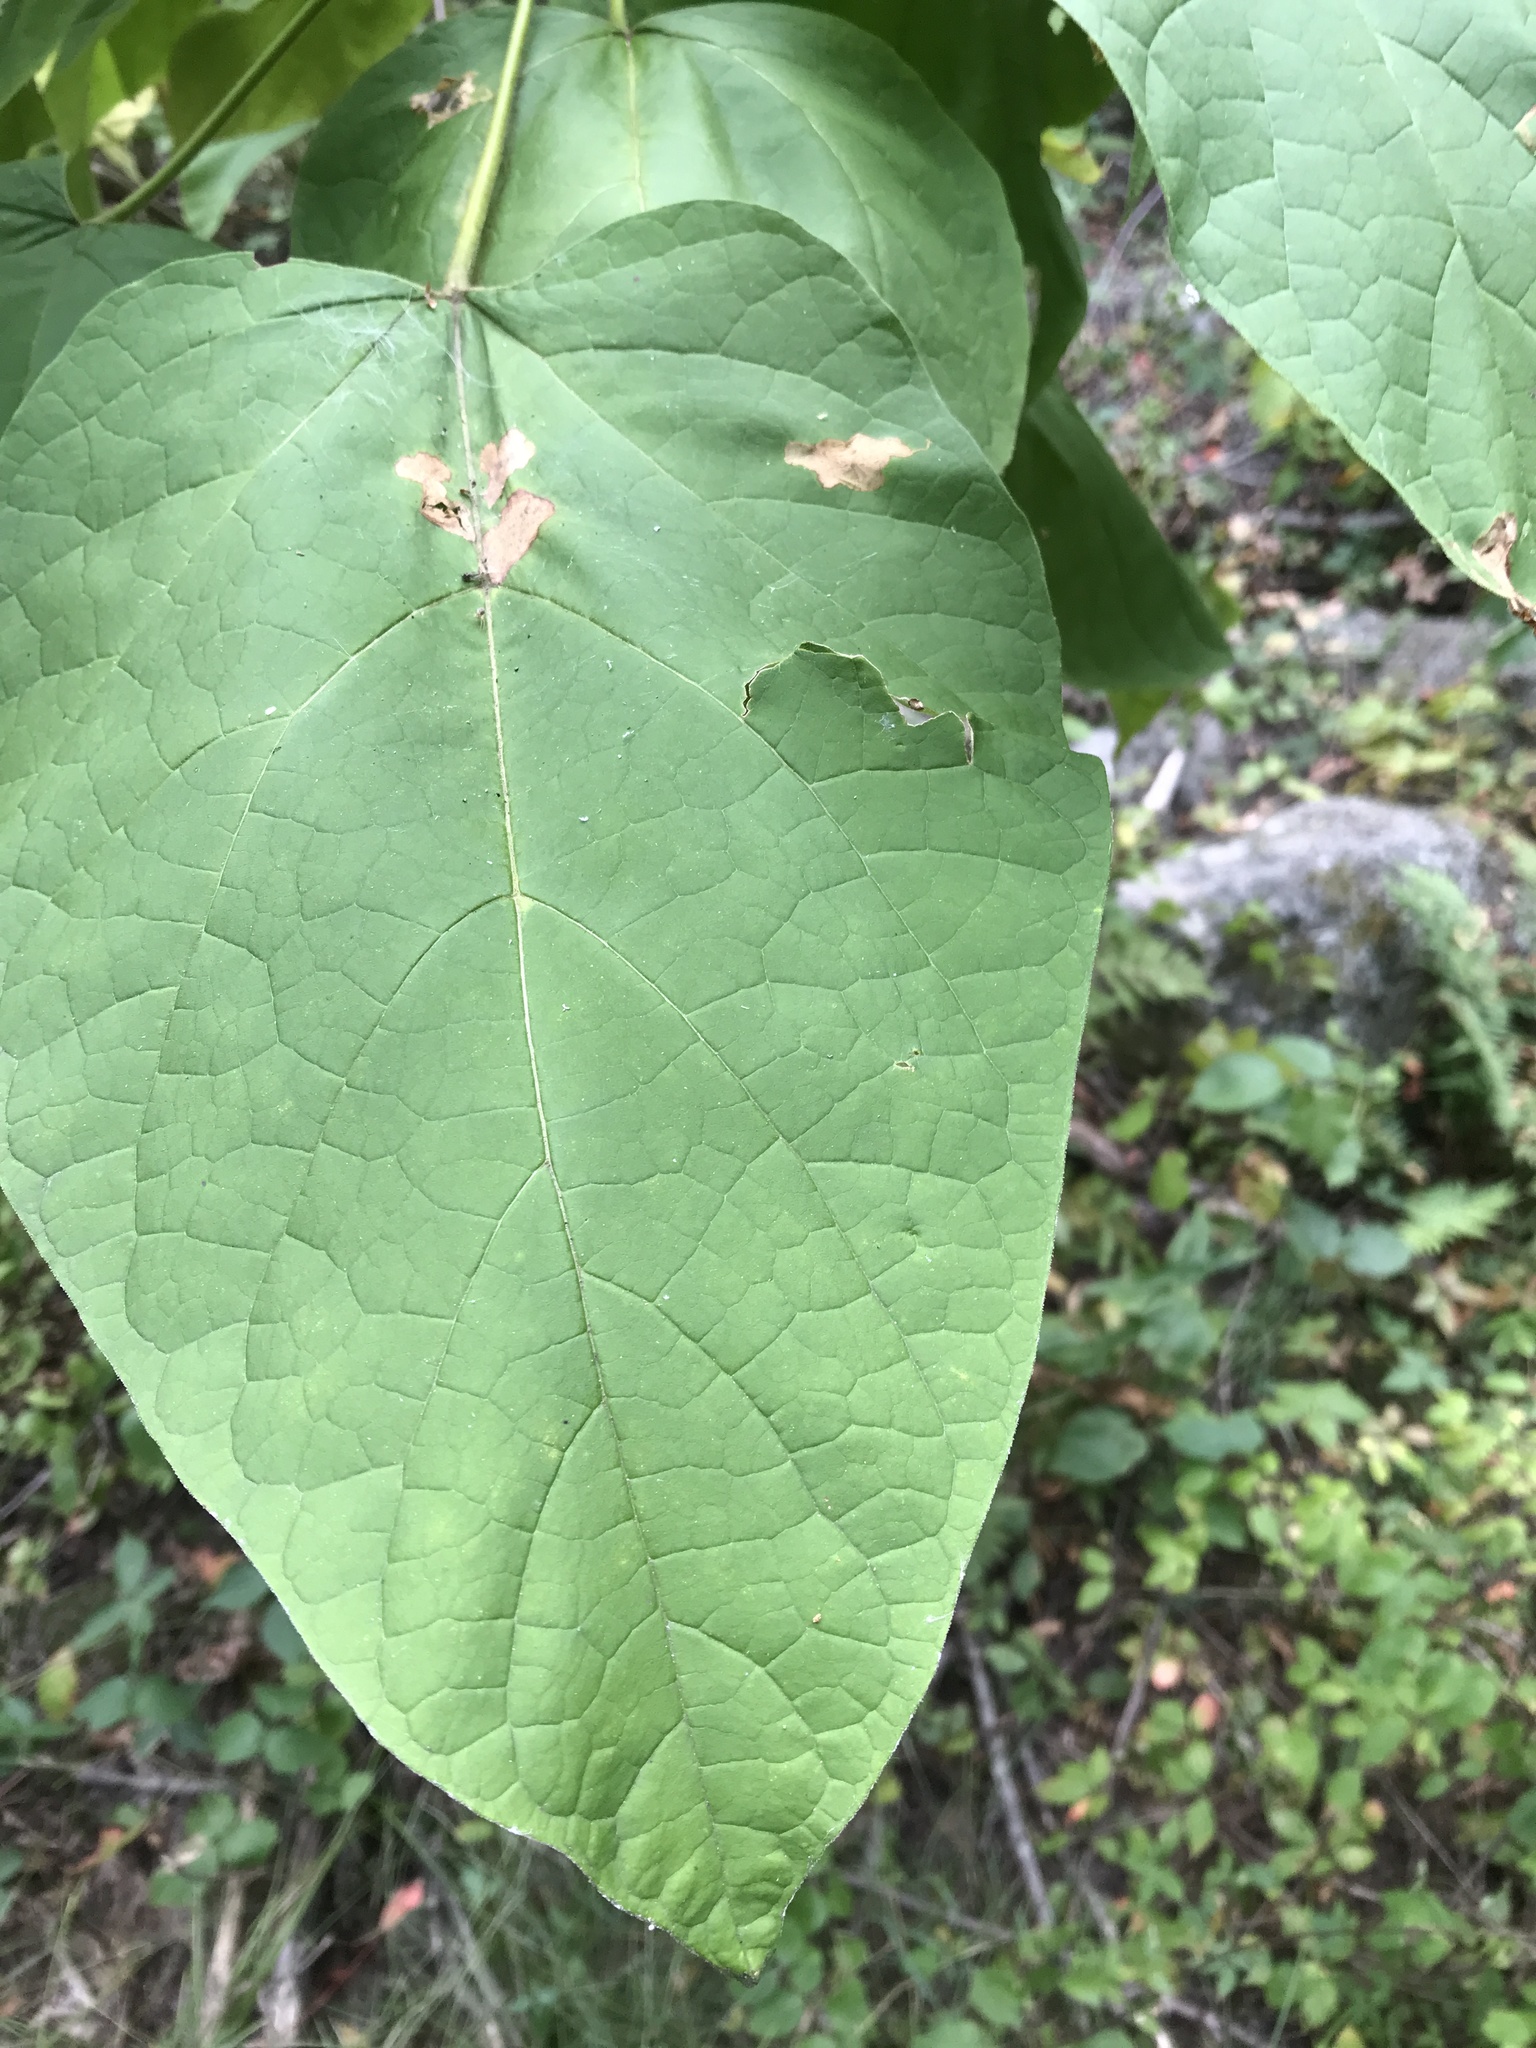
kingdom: Plantae
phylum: Tracheophyta
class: Magnoliopsida
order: Lamiales
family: Bignoniaceae
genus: Catalpa
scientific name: Catalpa speciosa
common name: Northern catalpa
